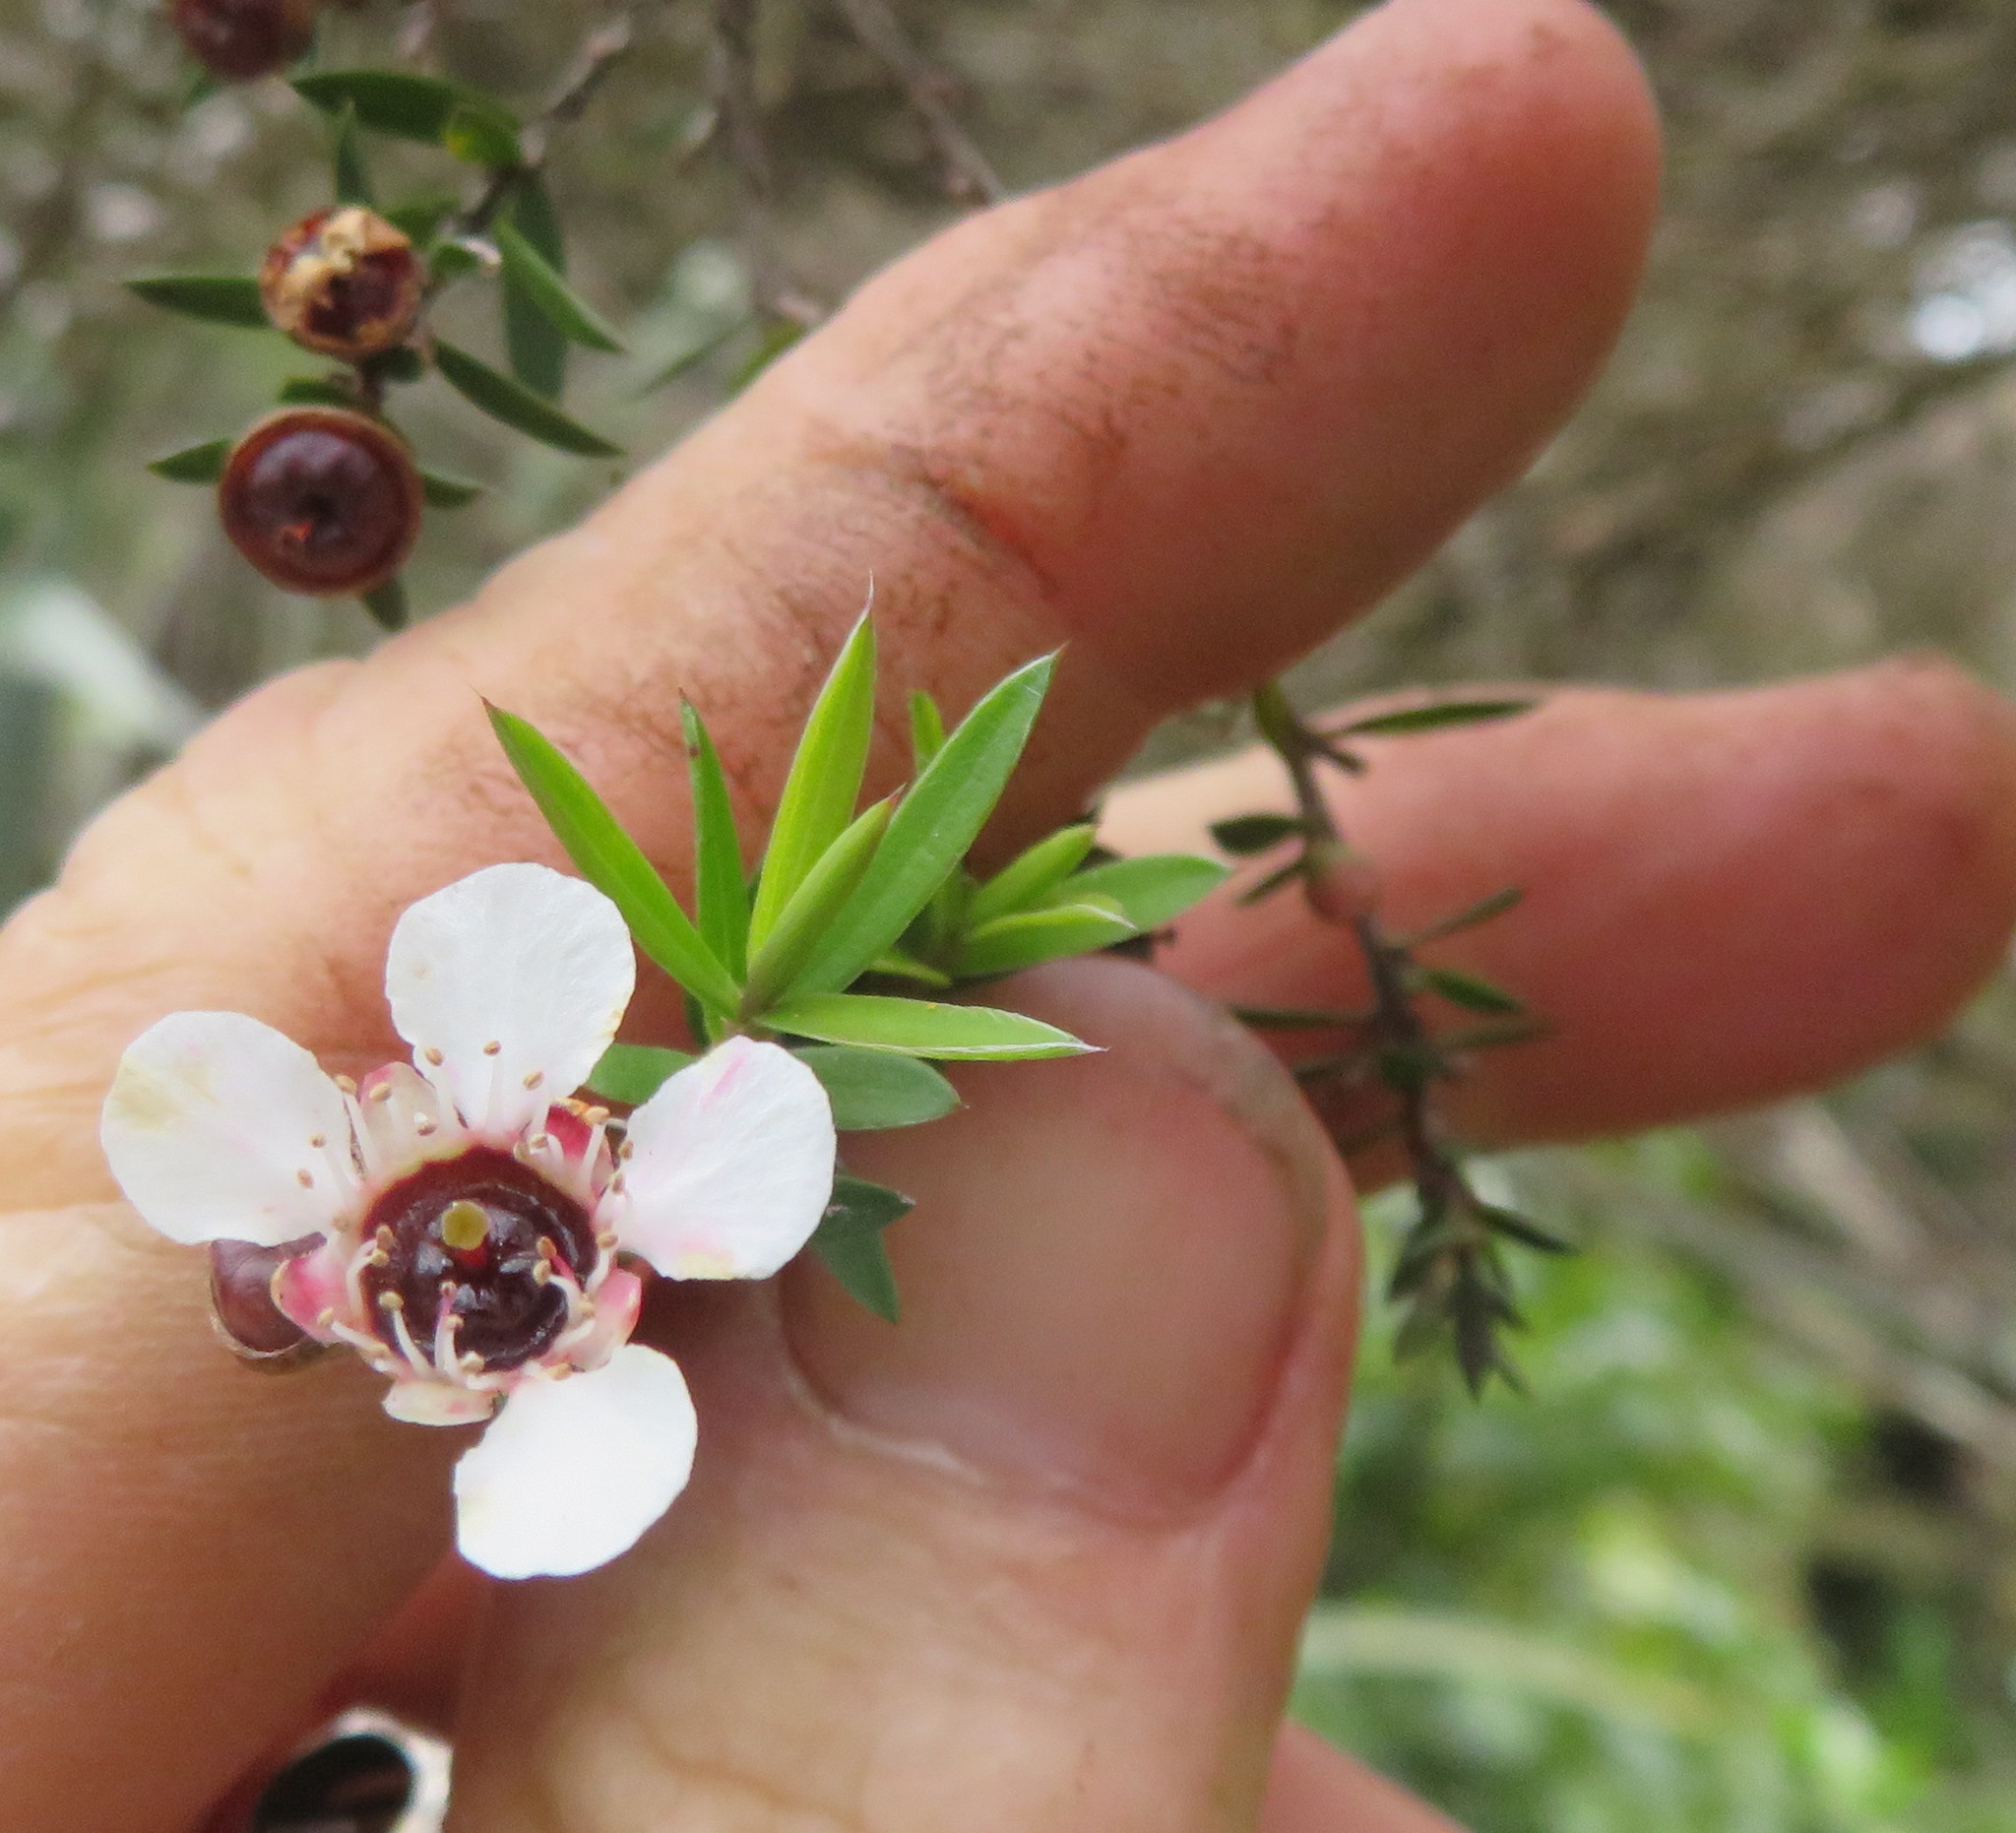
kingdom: Plantae
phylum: Tracheophyta
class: Magnoliopsida
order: Myrtales
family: Myrtaceae
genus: Leptospermum
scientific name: Leptospermum scoparium
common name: Broom tea-tree
